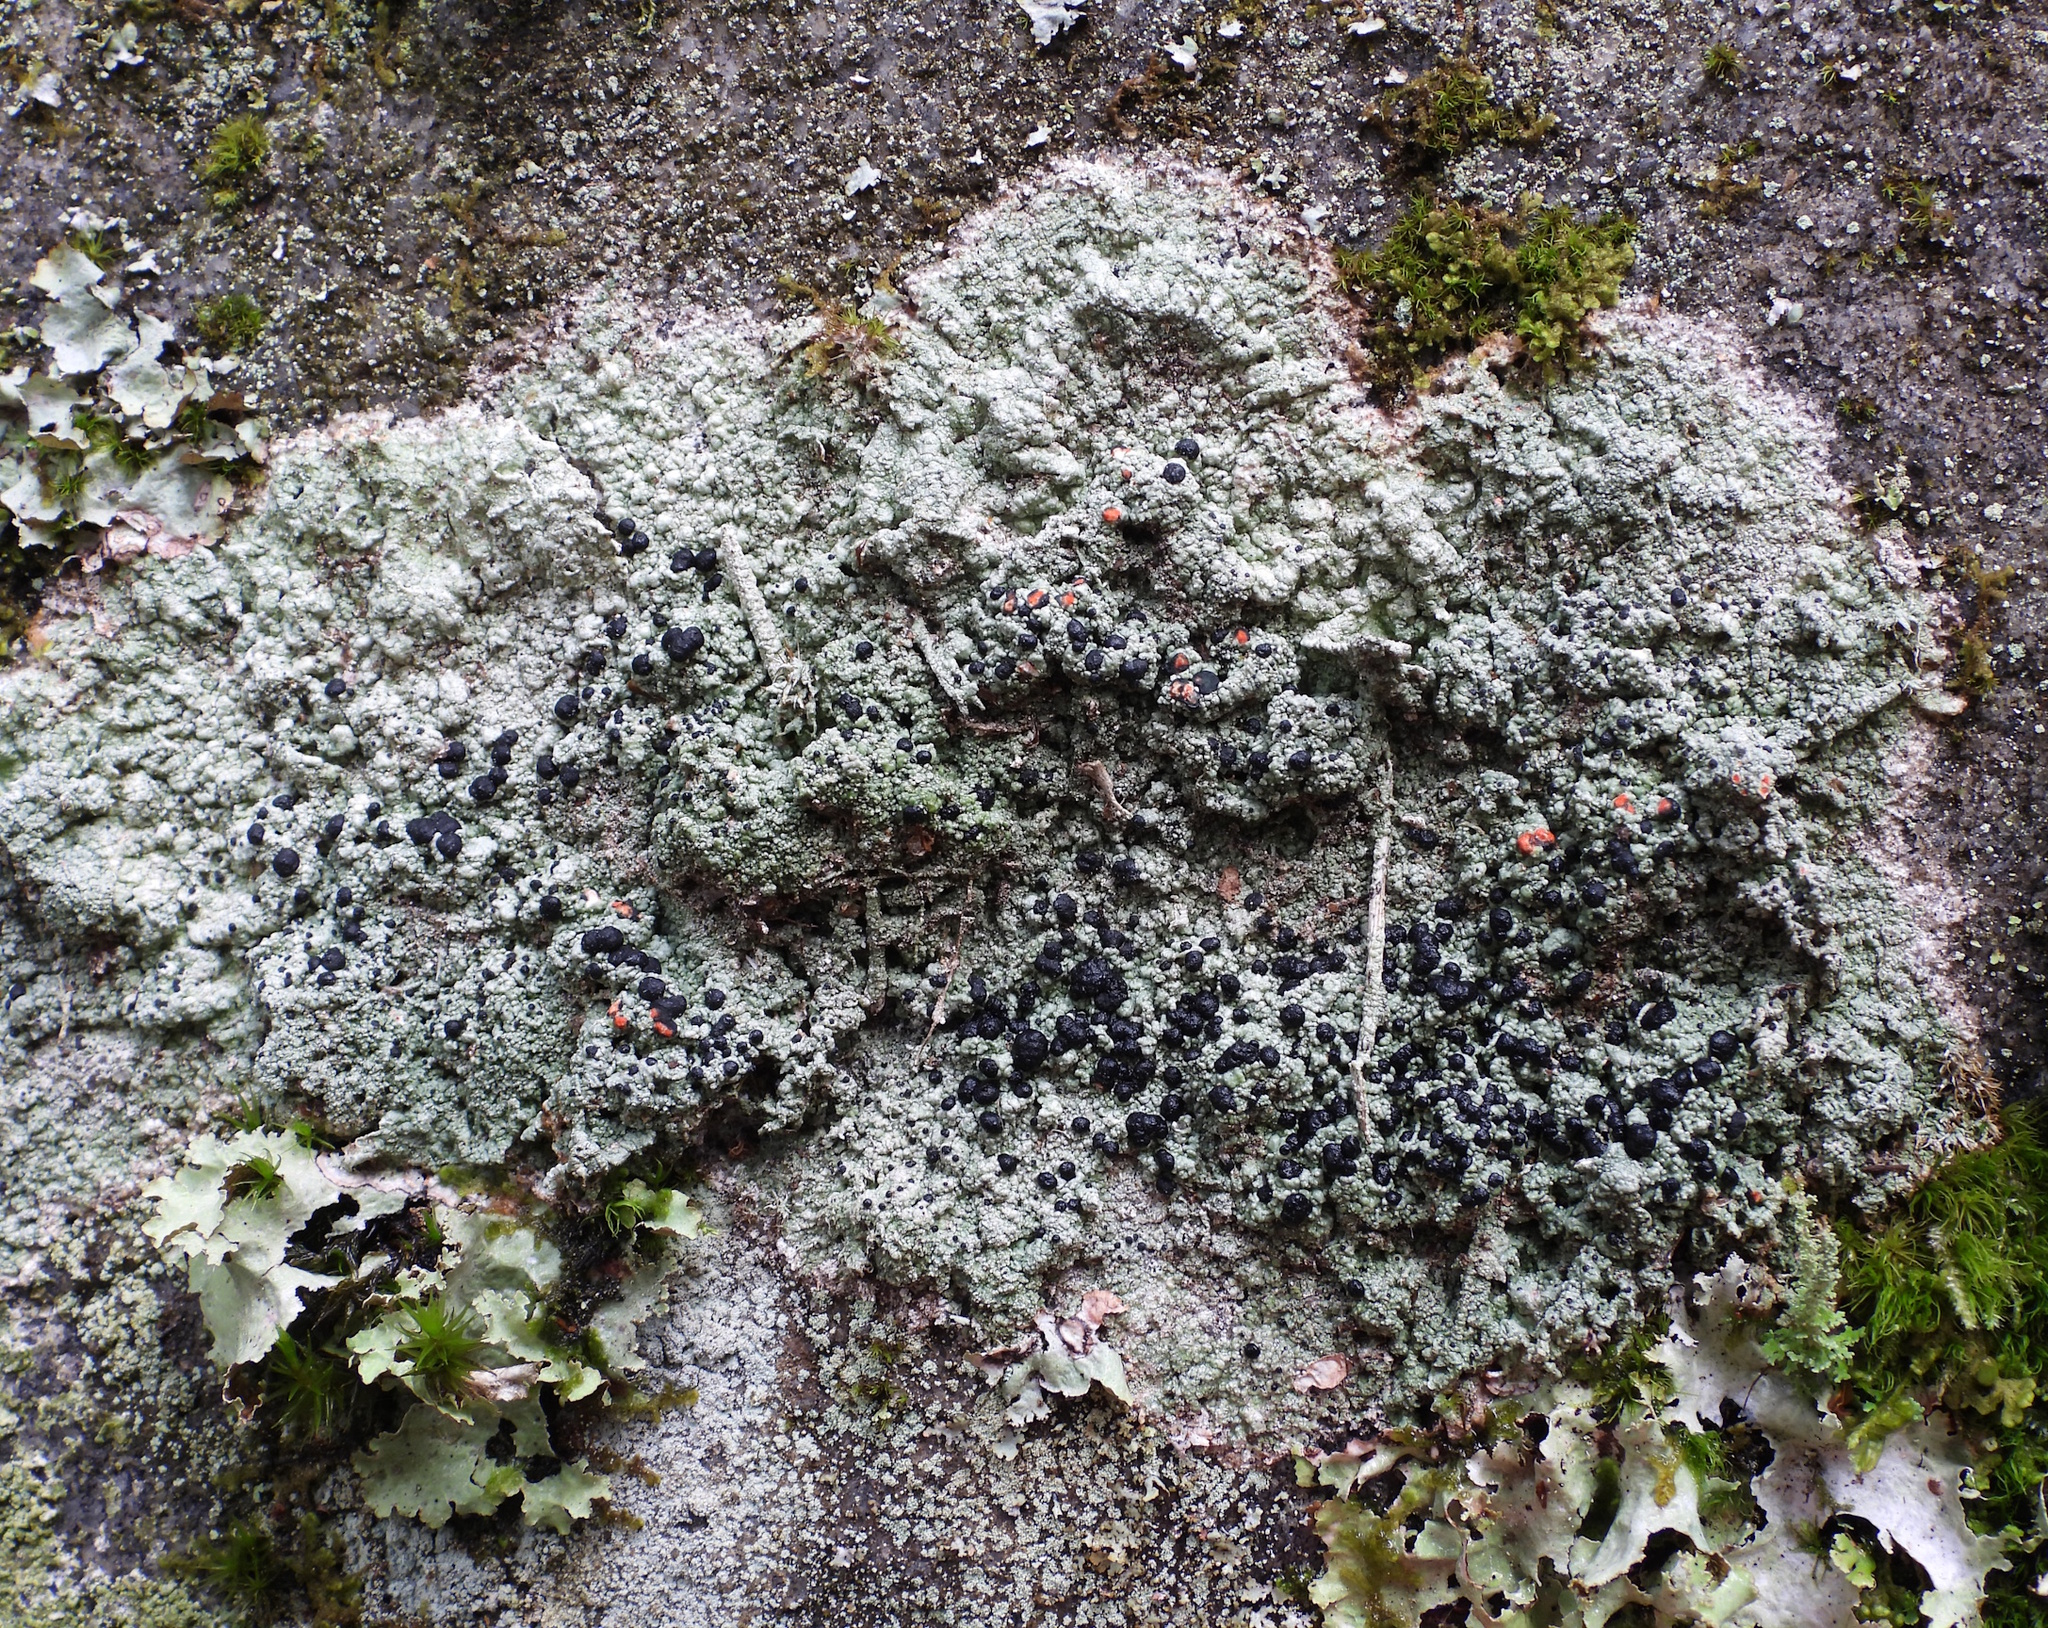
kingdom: Fungi
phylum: Ascomycota
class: Lecanoromycetes
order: Lecanorales
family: Tephromelataceae
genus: Mycoblastus
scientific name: Mycoblastus sanguinarius
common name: Bloody-heart lichen
